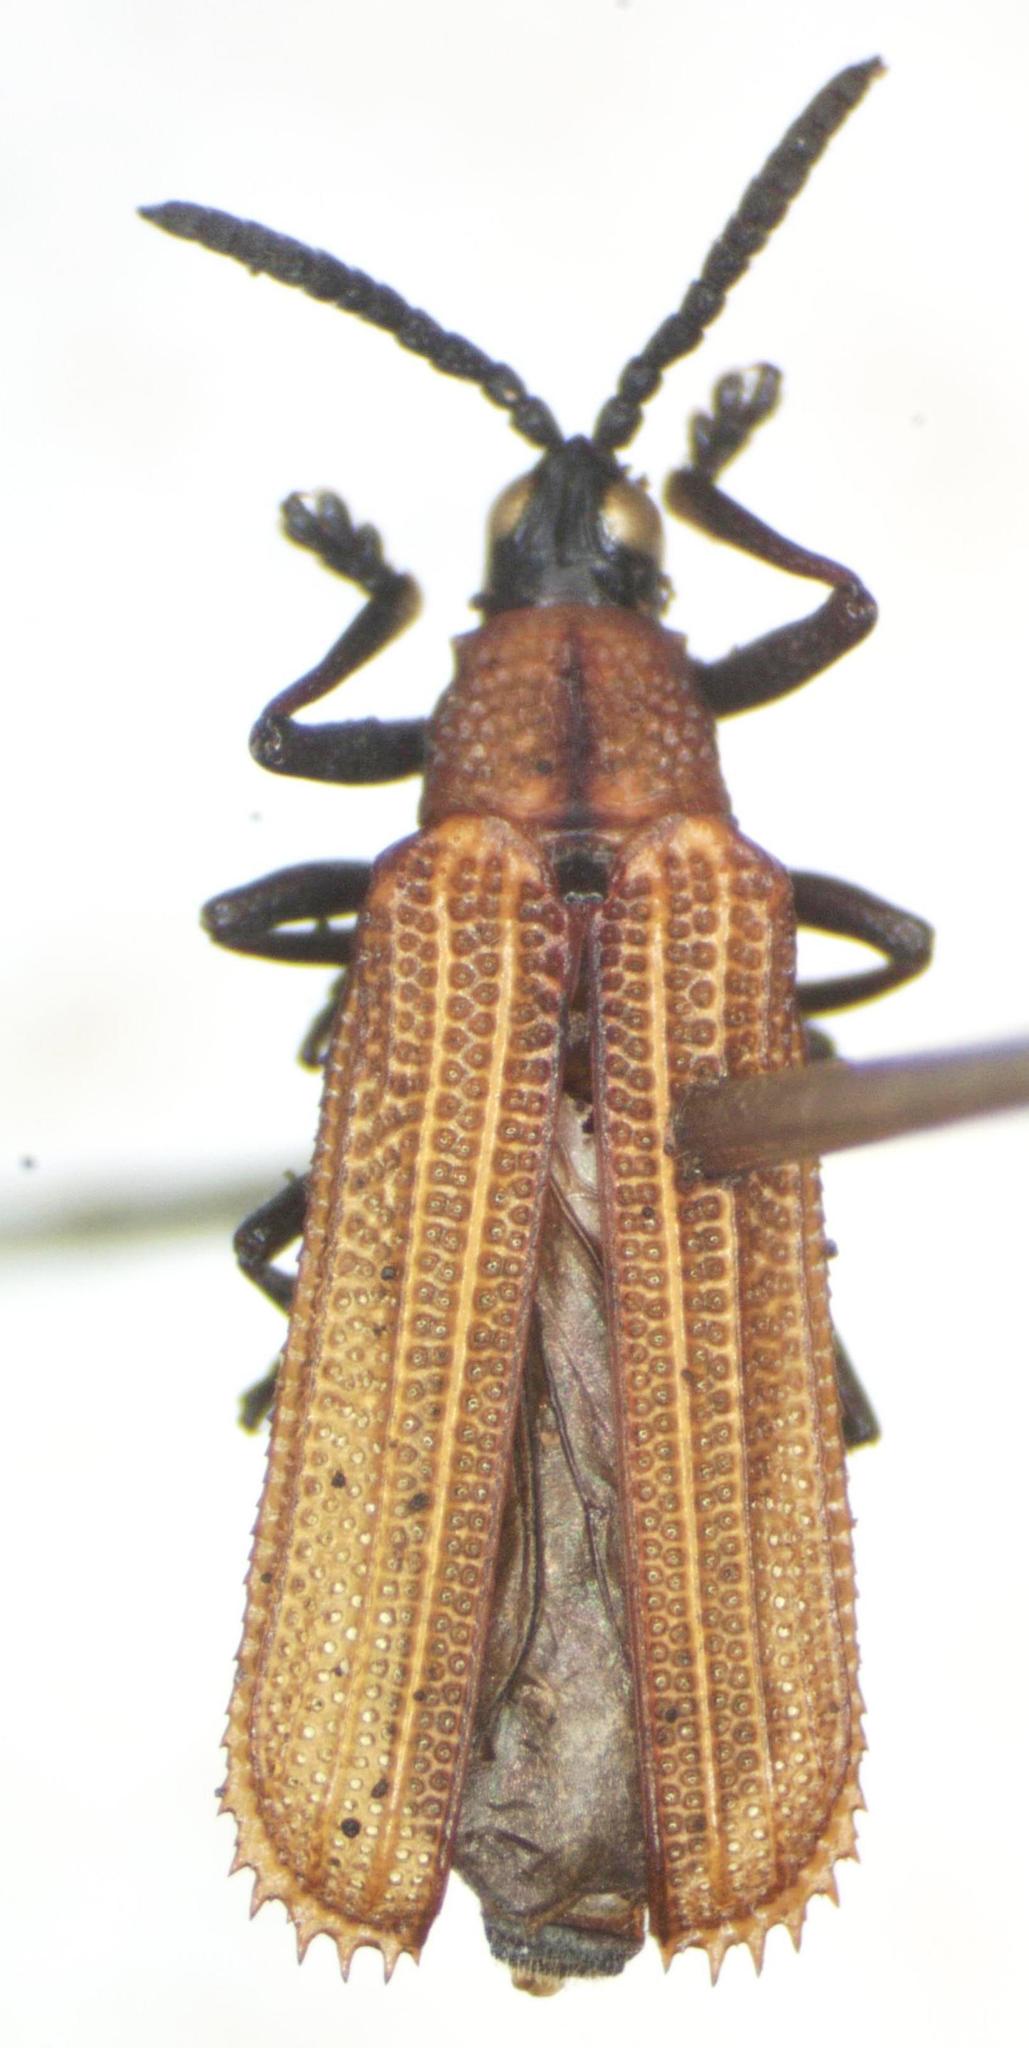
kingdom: Animalia
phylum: Arthropoda
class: Insecta
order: Coleoptera
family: Chrysomelidae
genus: Xenochalepus
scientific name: Xenochalepus chromaticus
